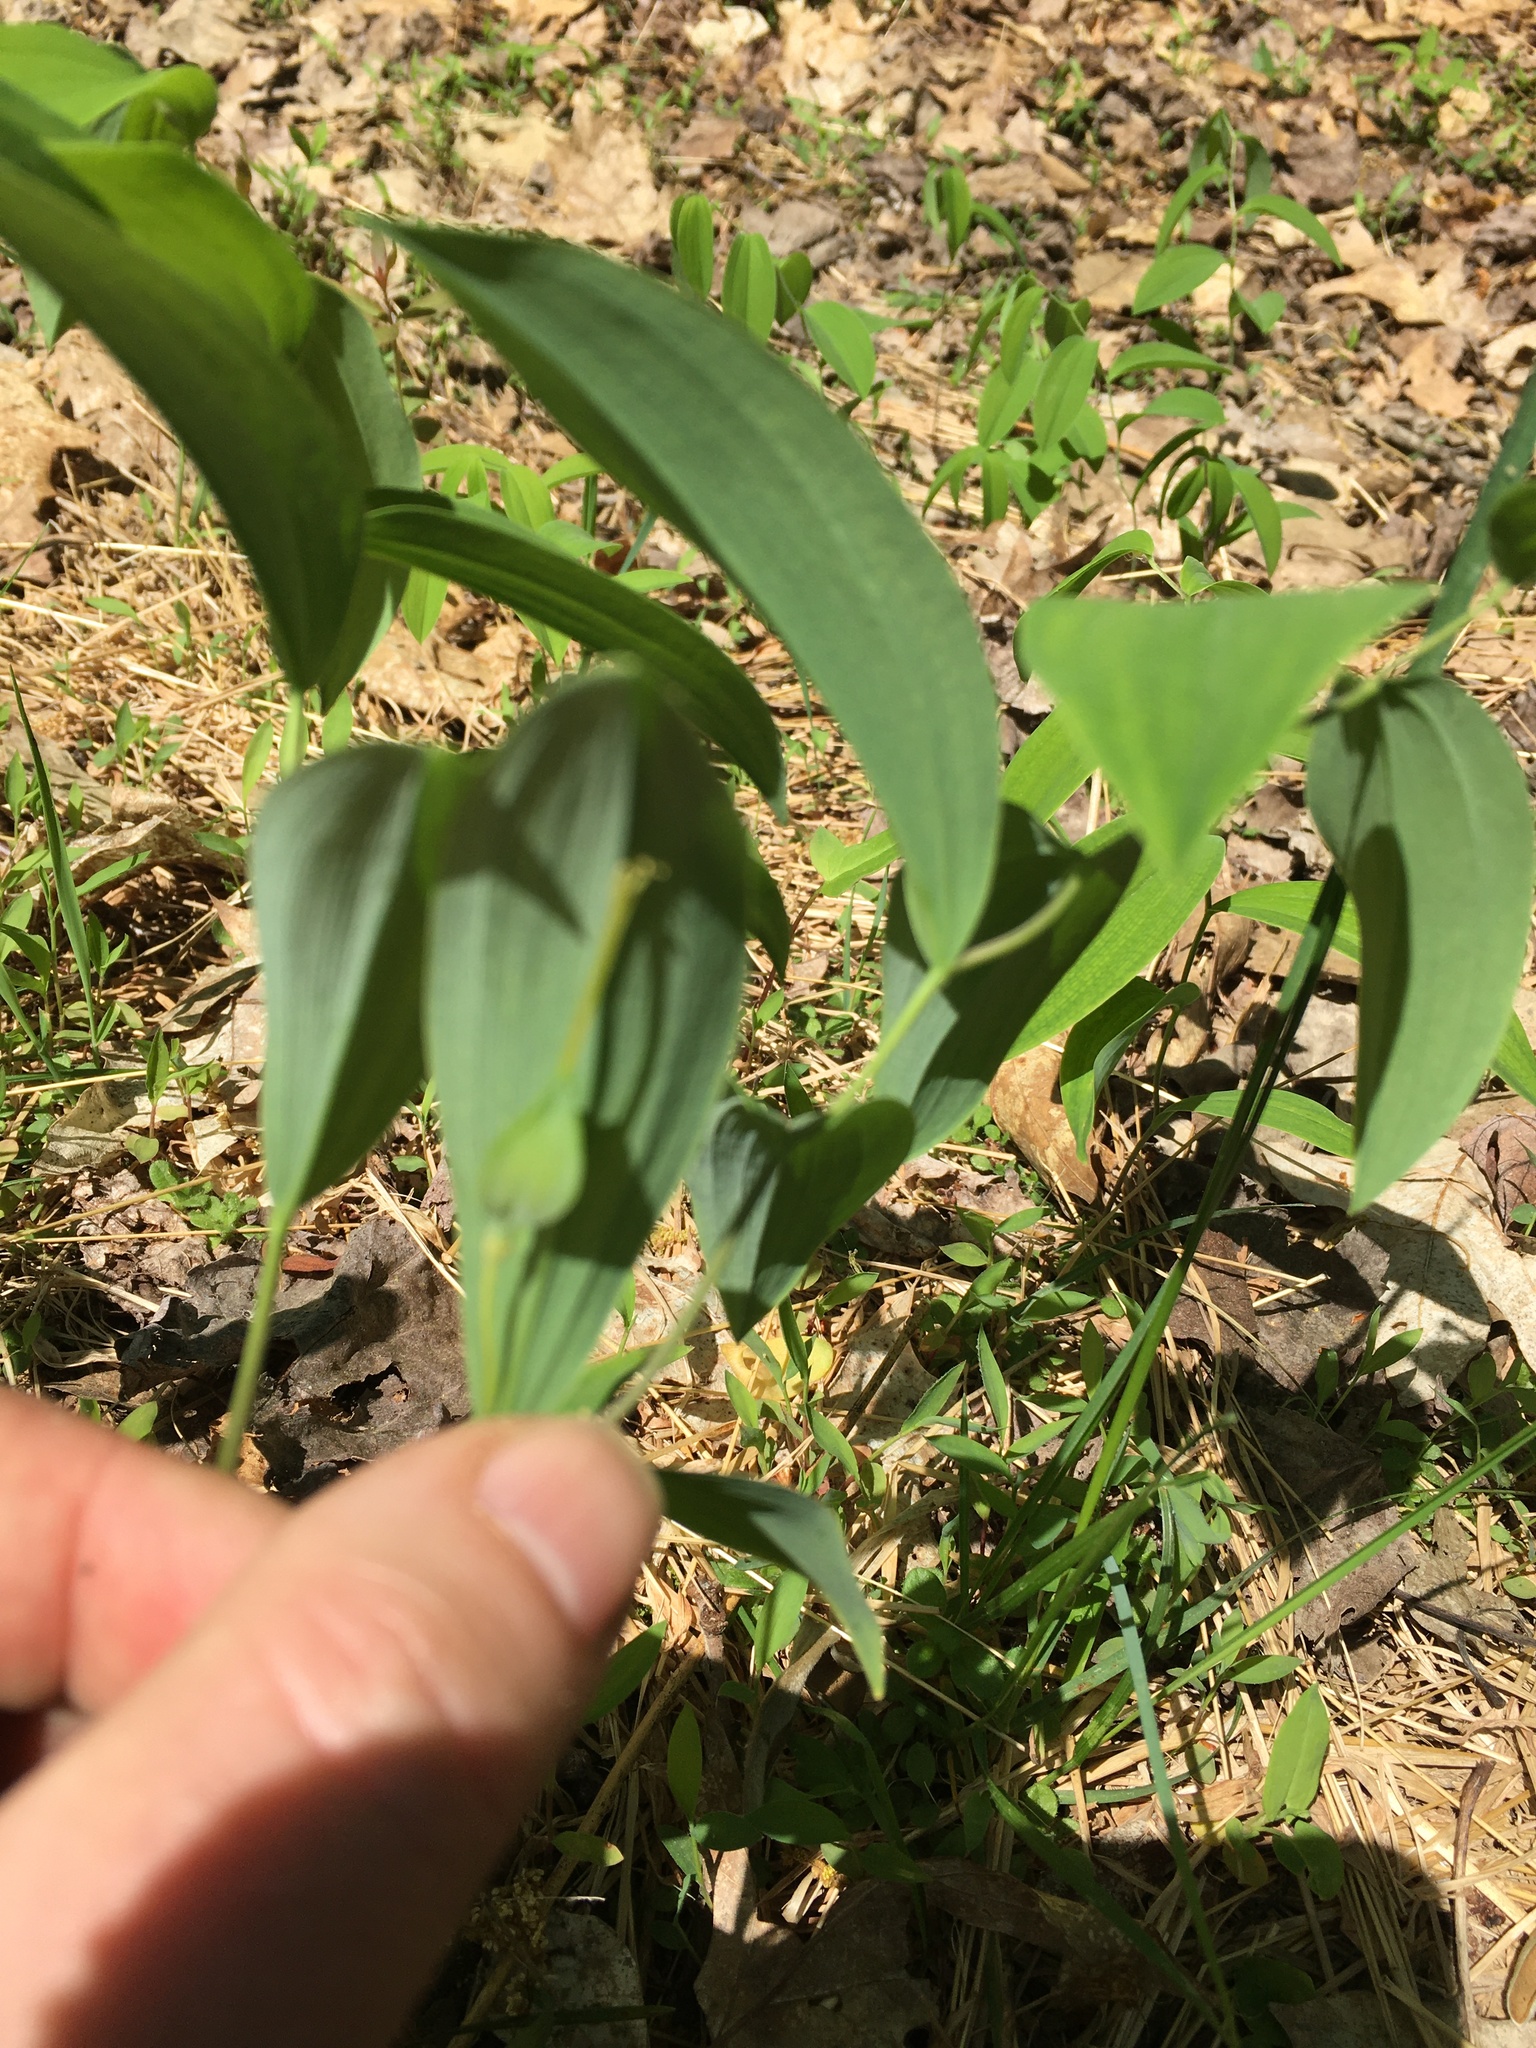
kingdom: Plantae
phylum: Tracheophyta
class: Liliopsida
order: Liliales
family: Colchicaceae
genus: Uvularia
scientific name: Uvularia sessilifolia
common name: Straw-lily
